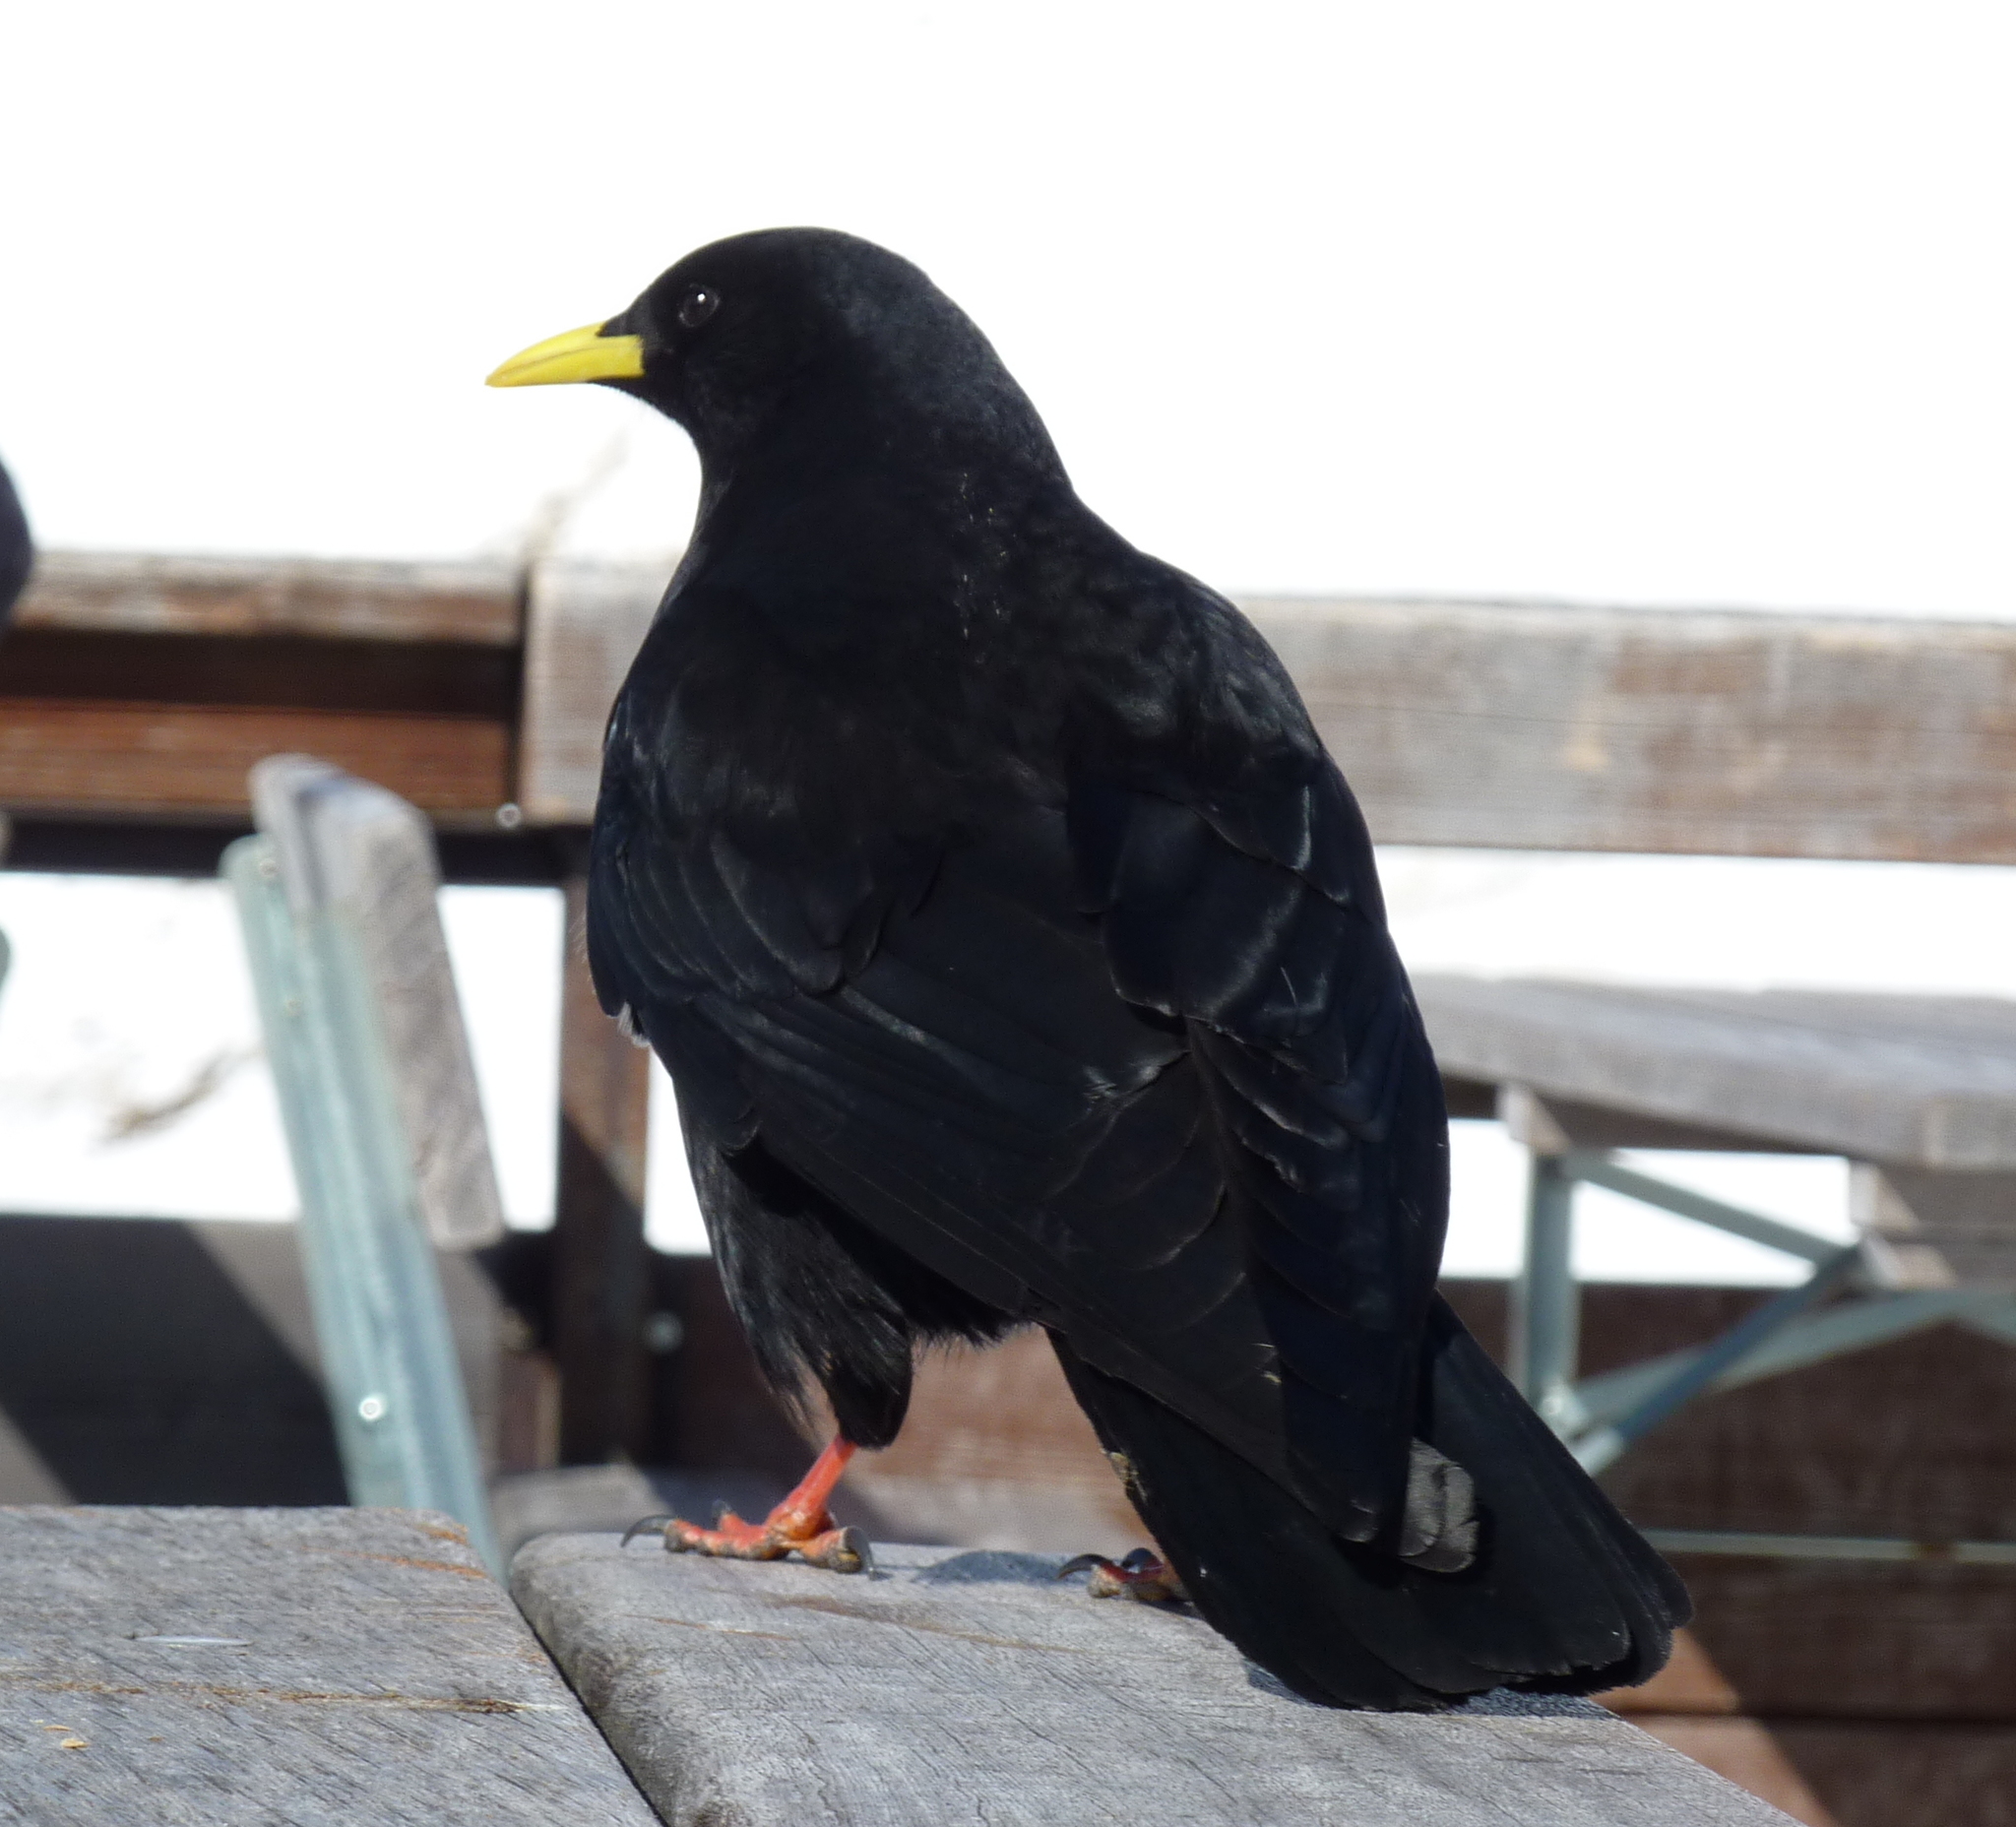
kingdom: Animalia
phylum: Chordata
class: Aves
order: Passeriformes
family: Corvidae
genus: Pyrrhocorax
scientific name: Pyrrhocorax graculus
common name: Alpine chough
